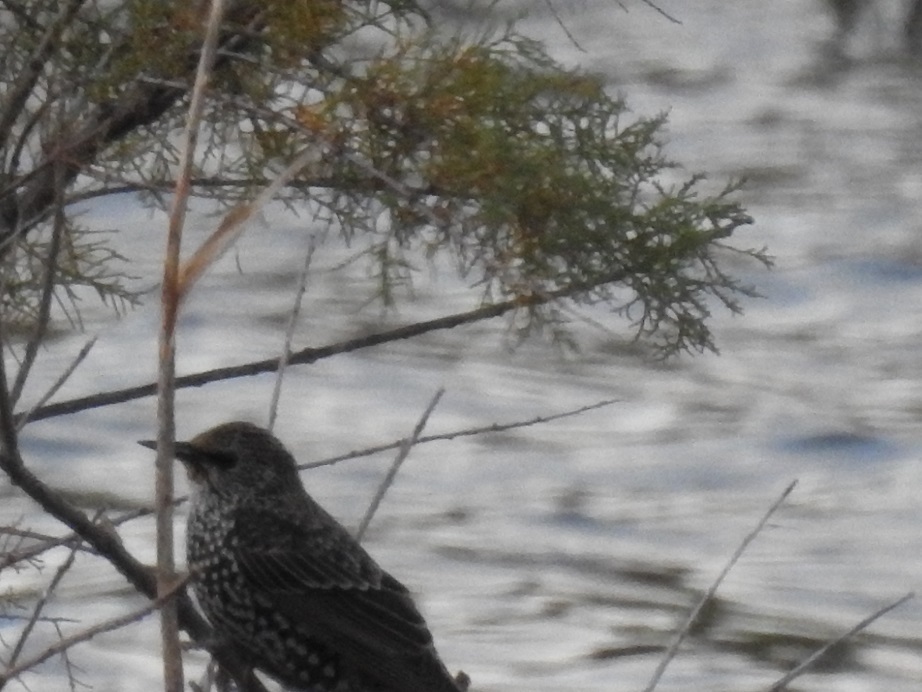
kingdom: Animalia
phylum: Chordata
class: Aves
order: Passeriformes
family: Sturnidae
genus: Sturnus
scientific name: Sturnus vulgaris
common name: Common starling
